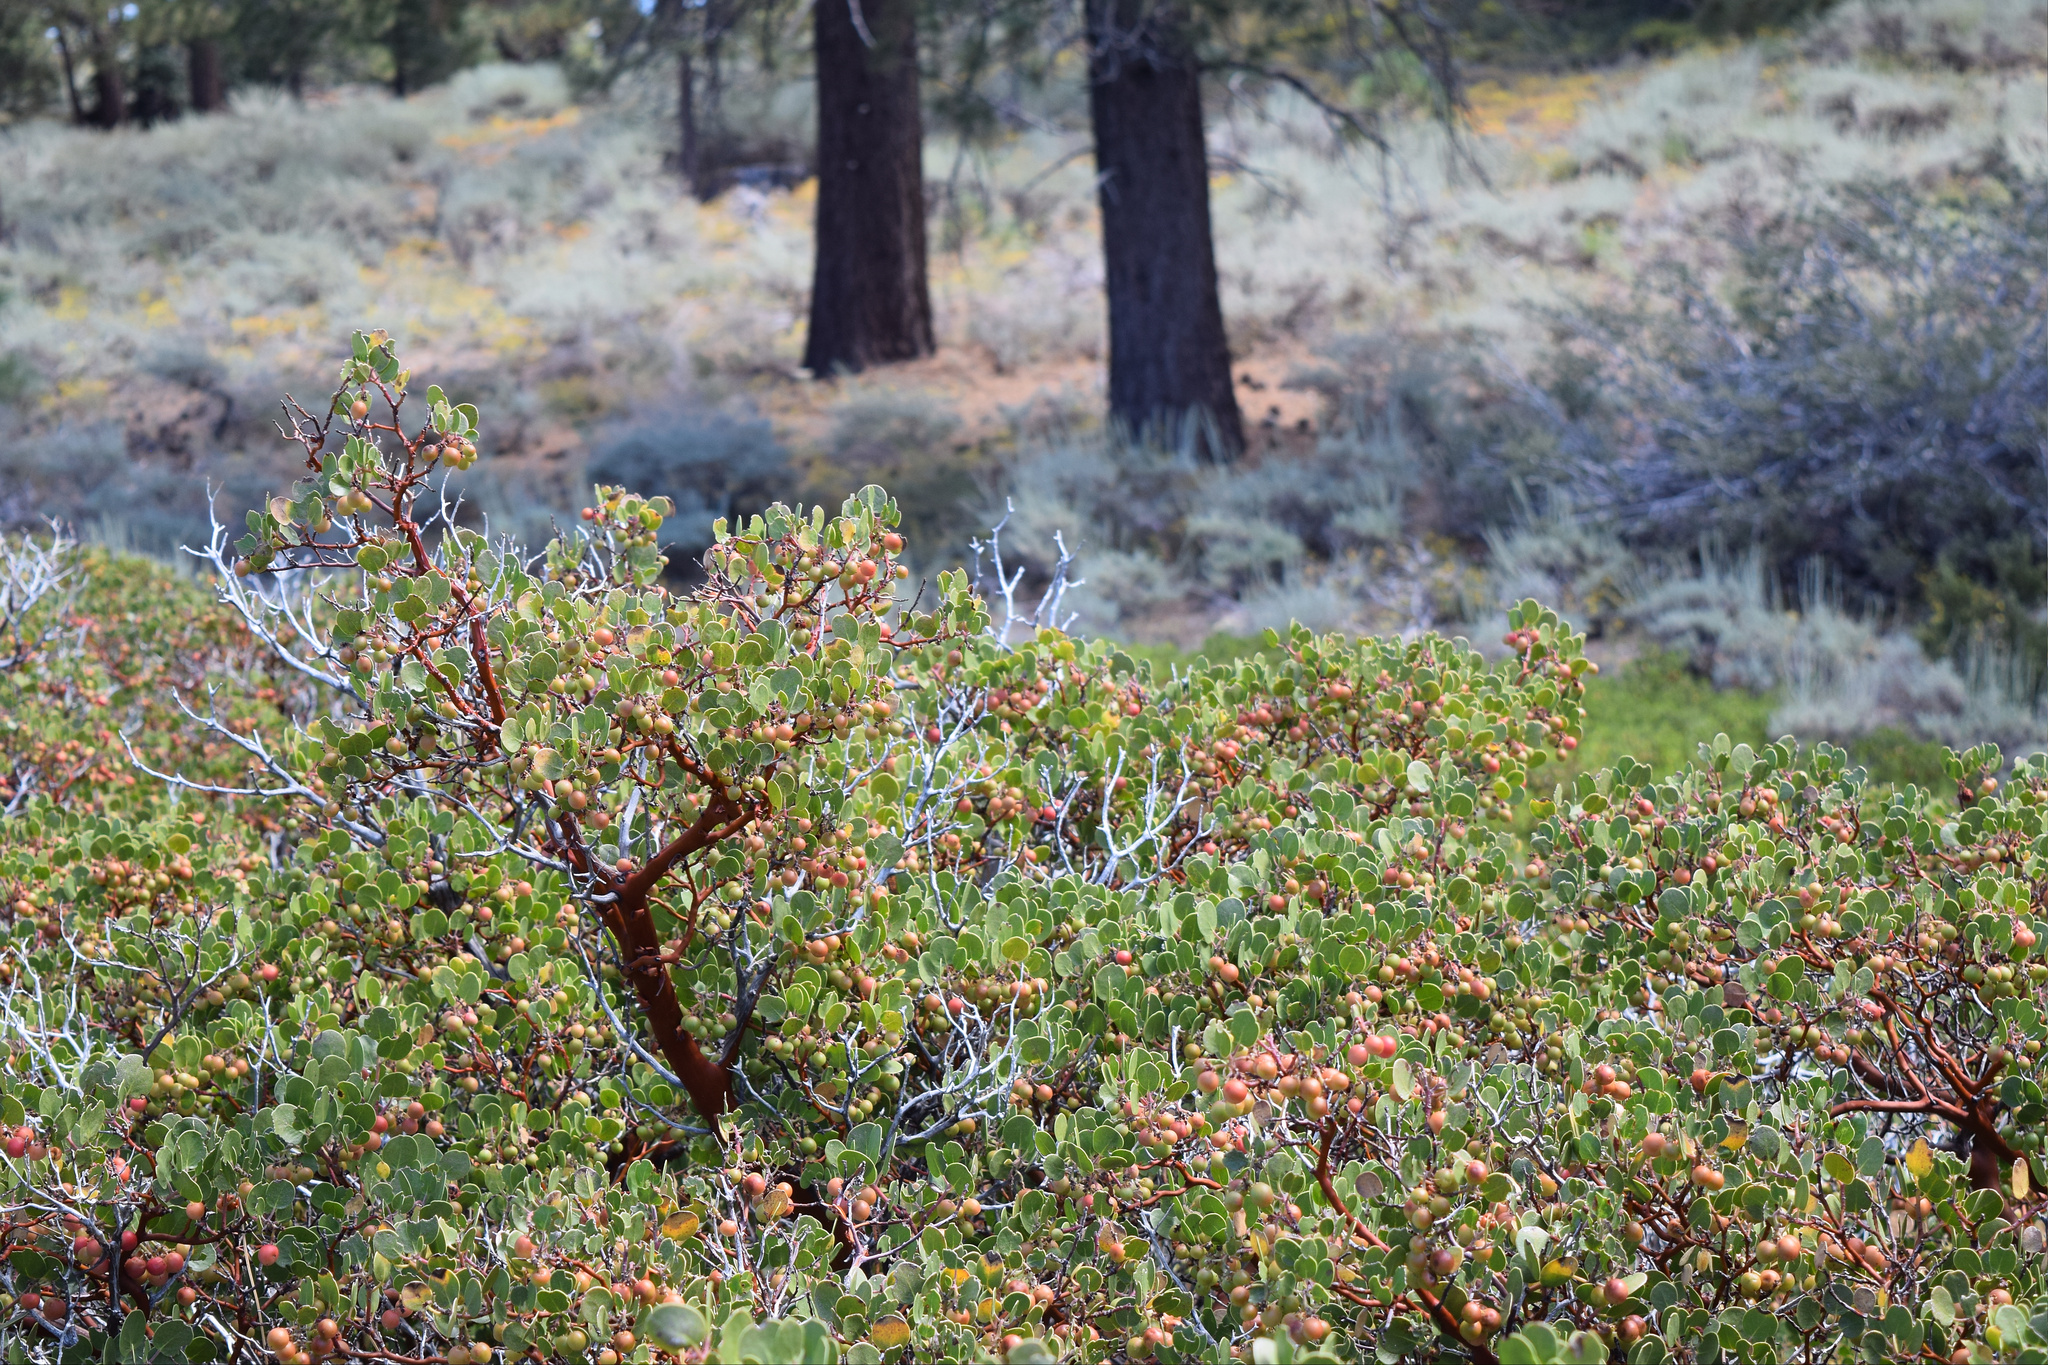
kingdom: Plantae
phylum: Tracheophyta
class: Magnoliopsida
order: Ericales
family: Ericaceae
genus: Arctostaphylos
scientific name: Arctostaphylos parryana
